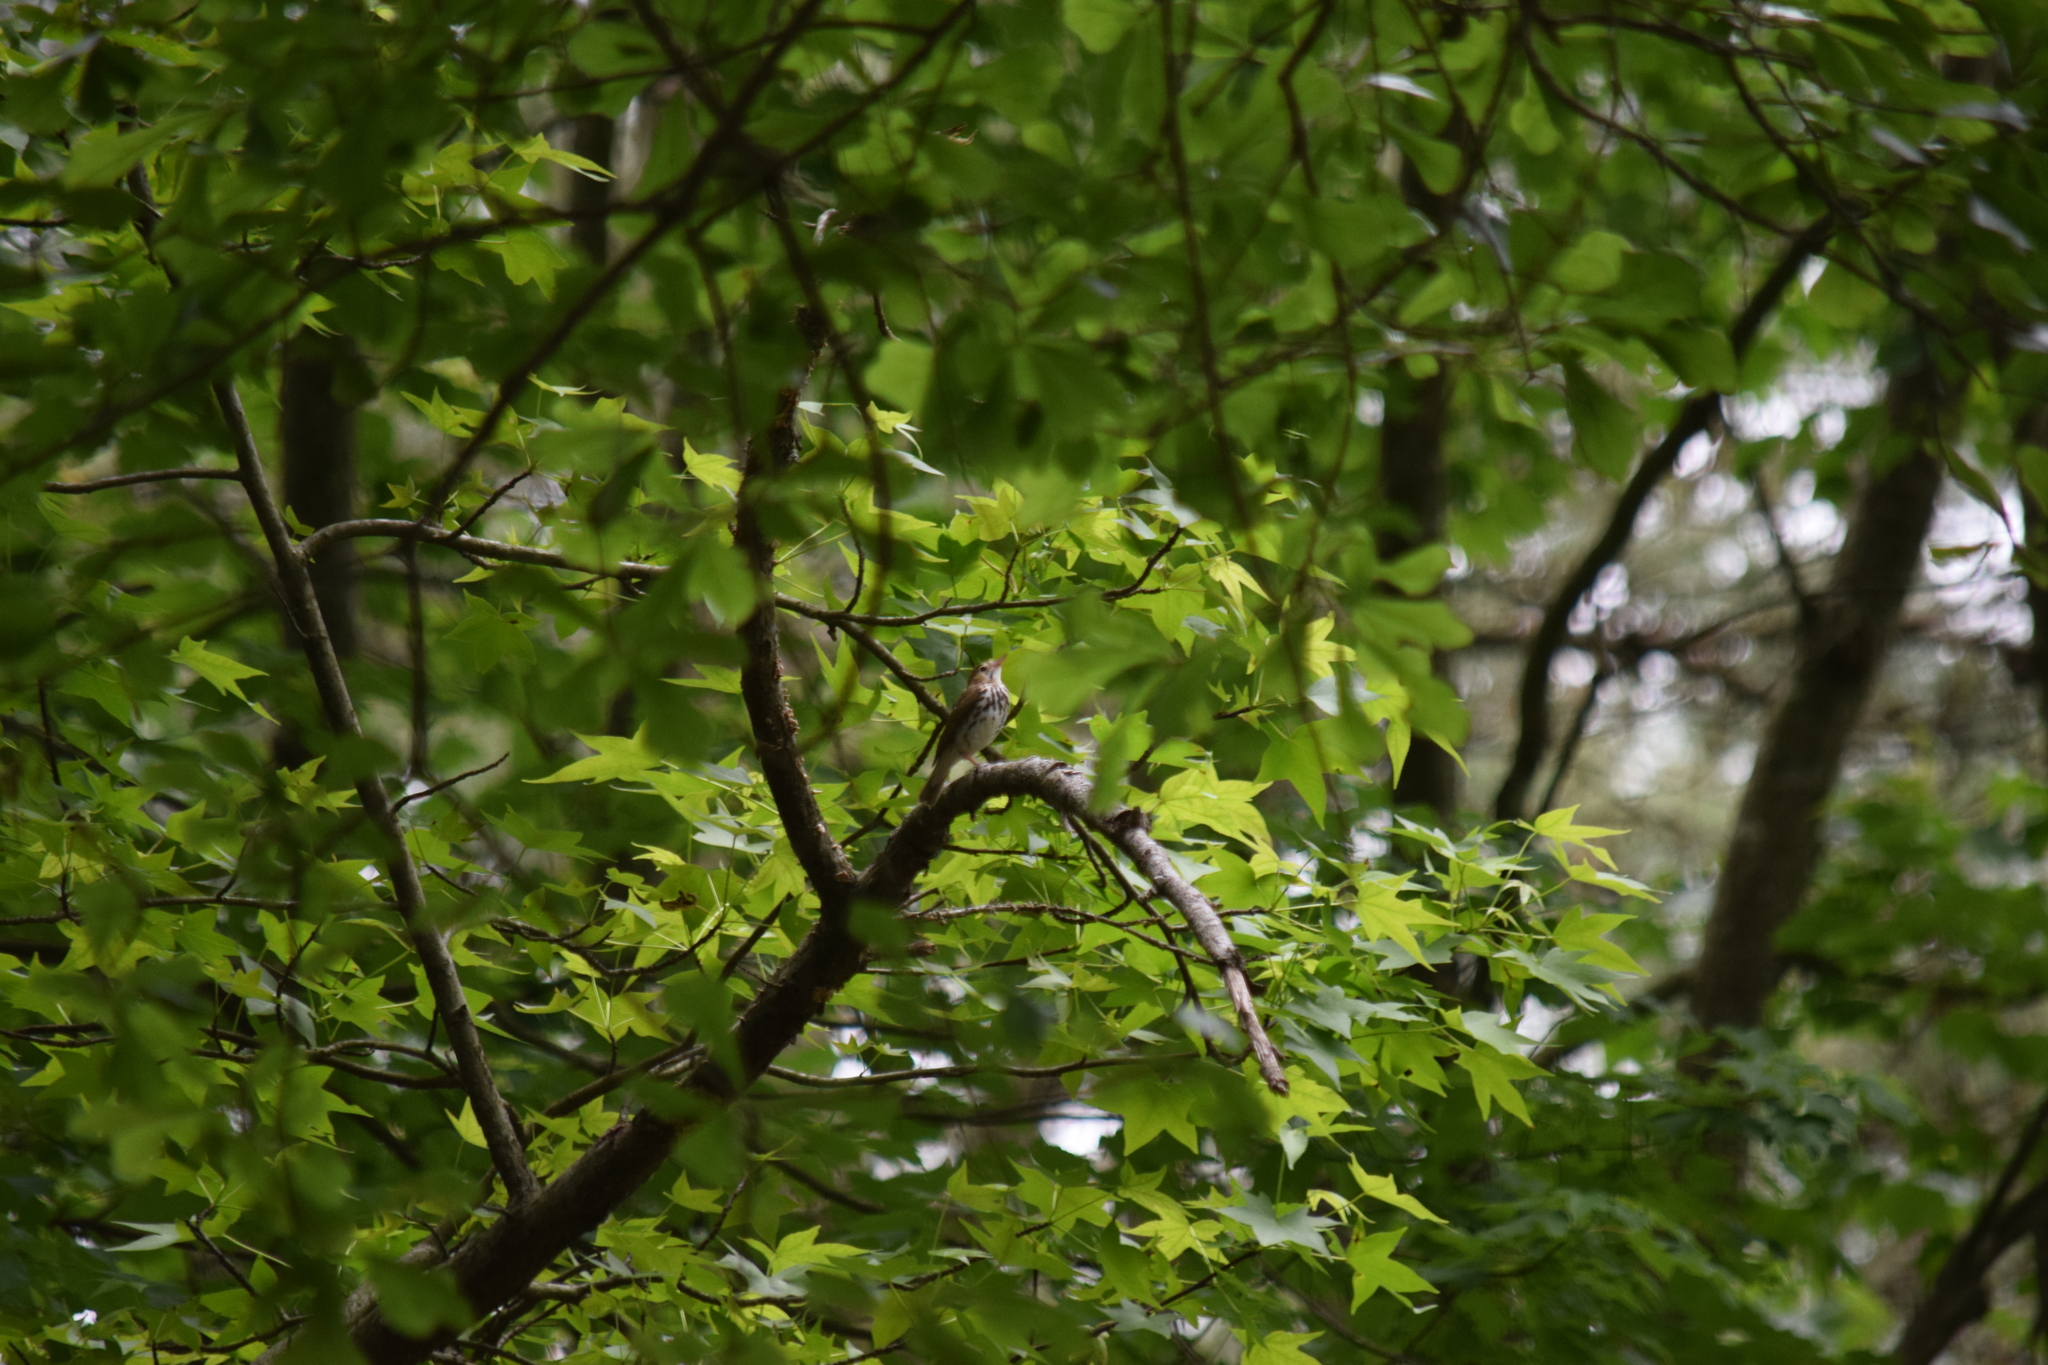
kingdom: Animalia
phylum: Chordata
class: Aves
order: Passeriformes
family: Turdidae
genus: Hylocichla
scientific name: Hylocichla mustelina
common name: Wood thrush
